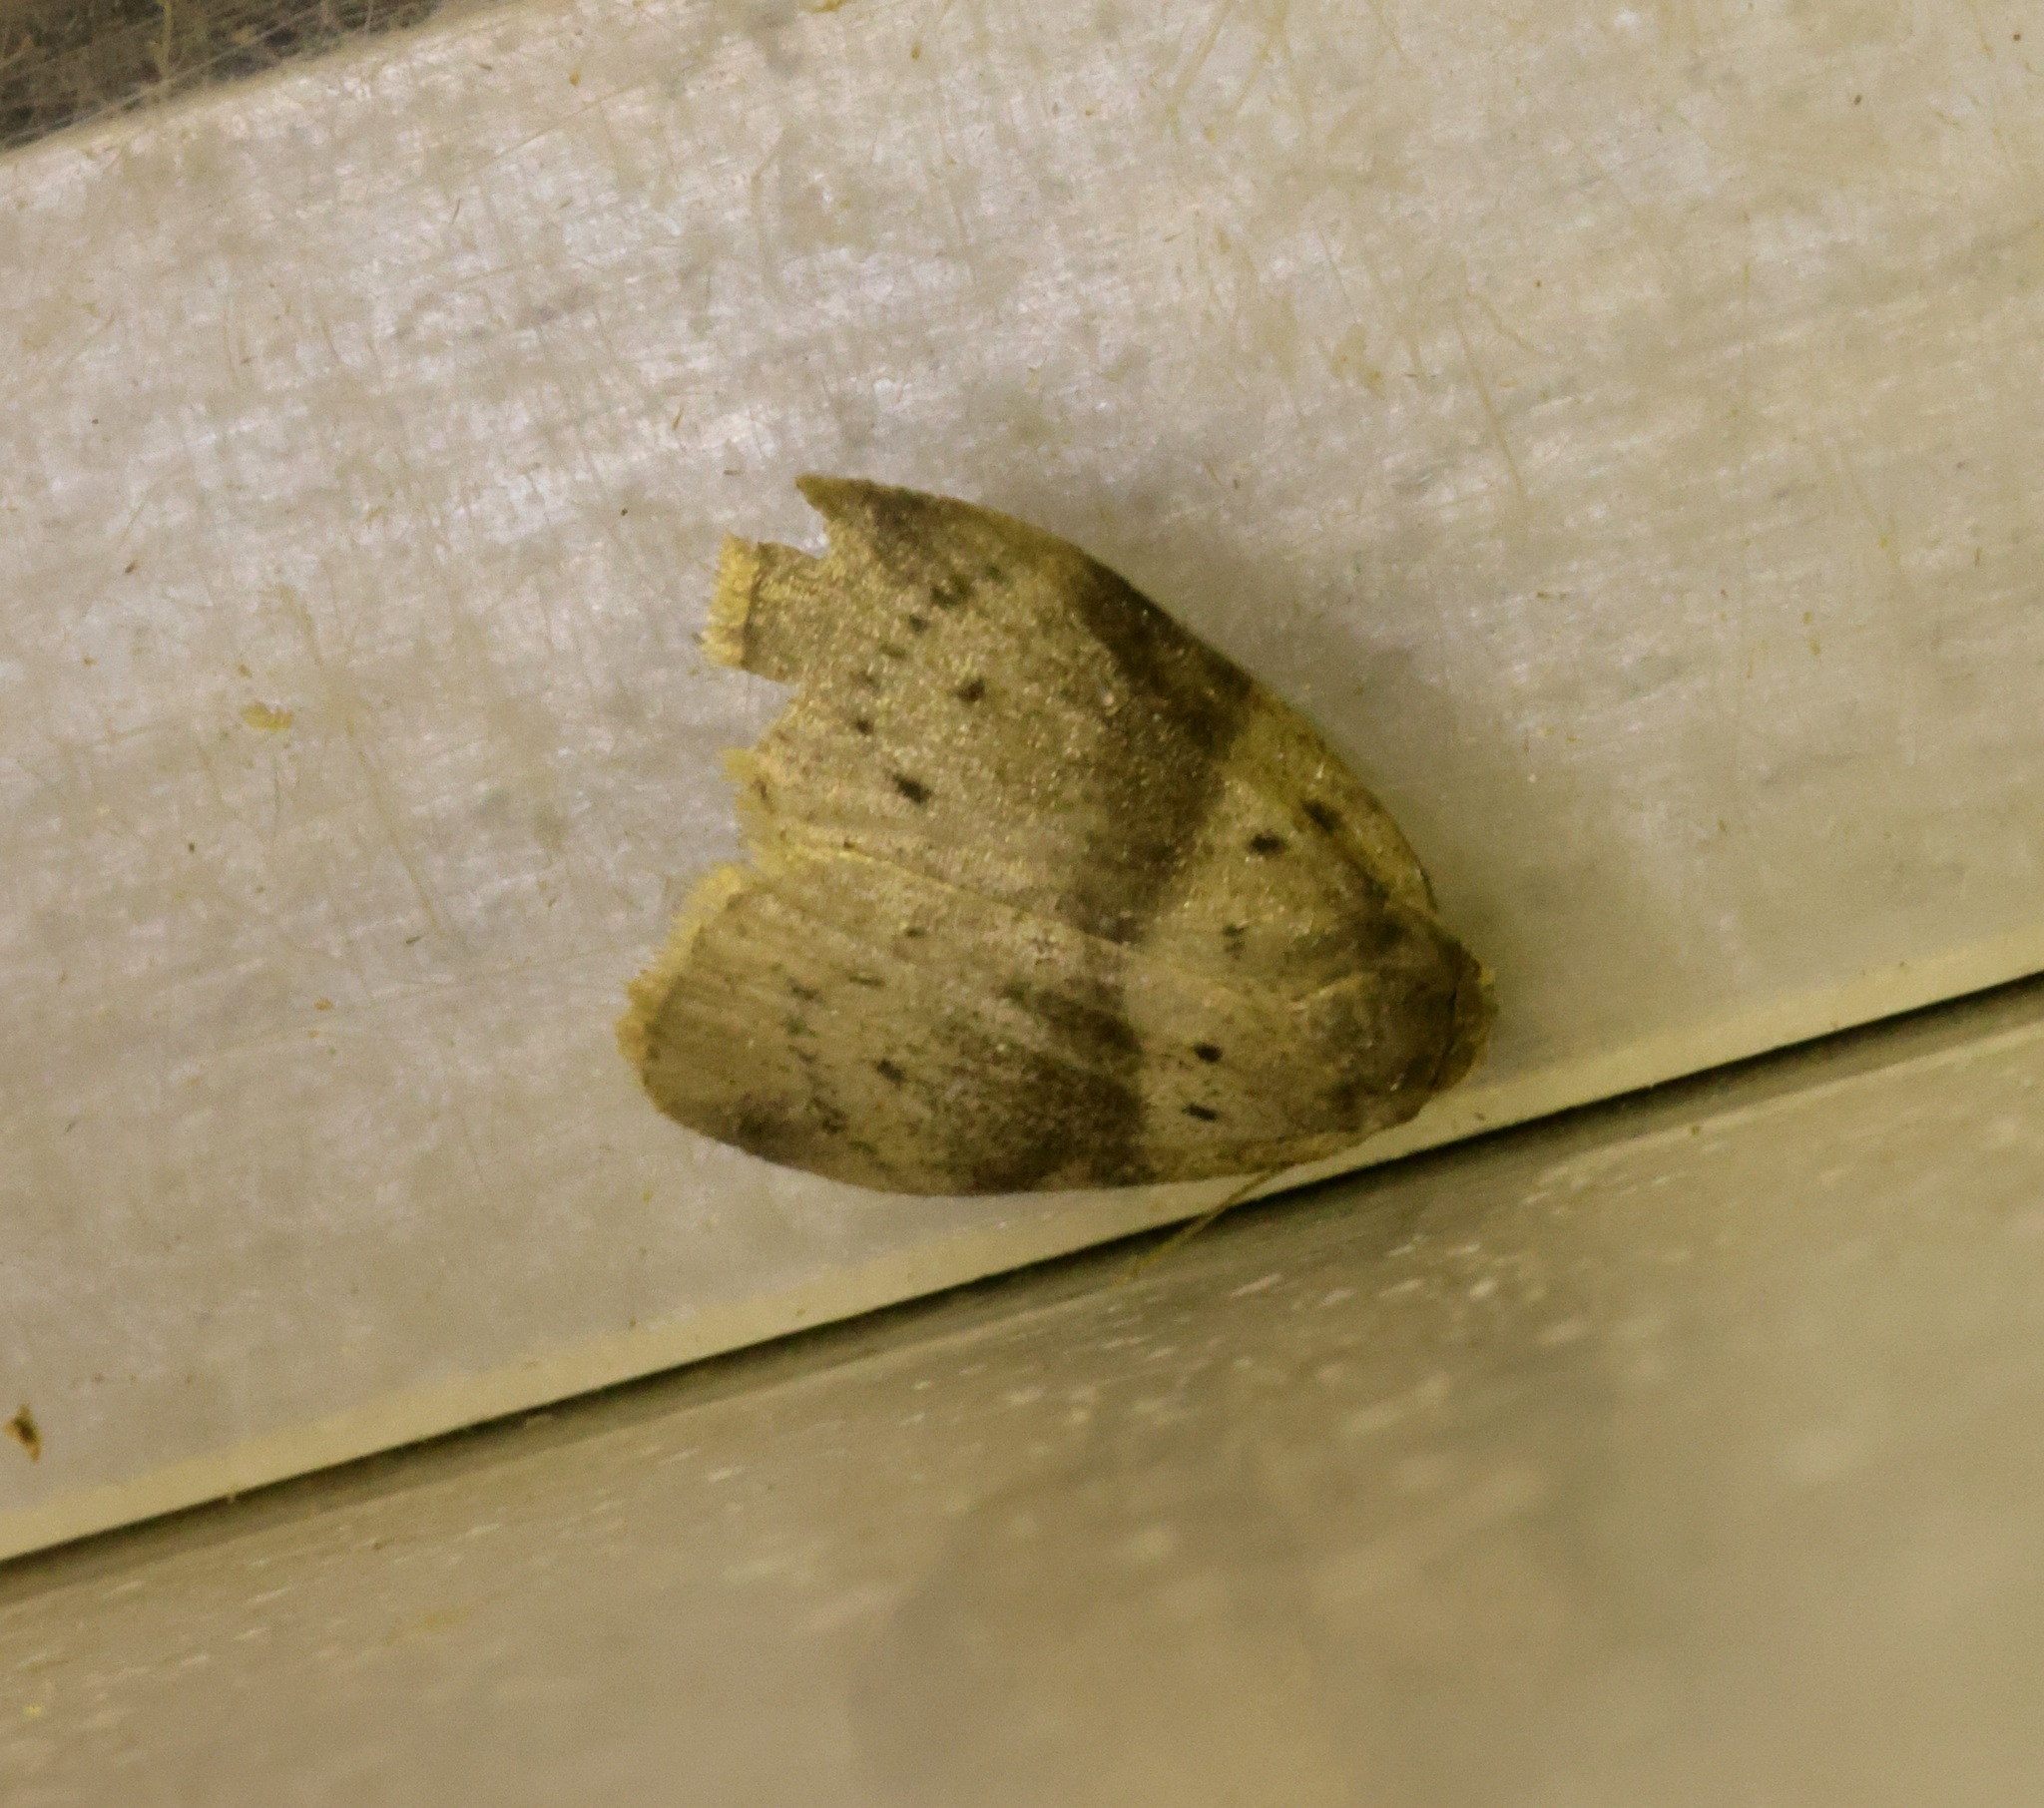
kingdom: Animalia
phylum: Arthropoda
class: Insecta
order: Lepidoptera
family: Erebidae
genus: Stictane
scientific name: Stictane rectilinea
